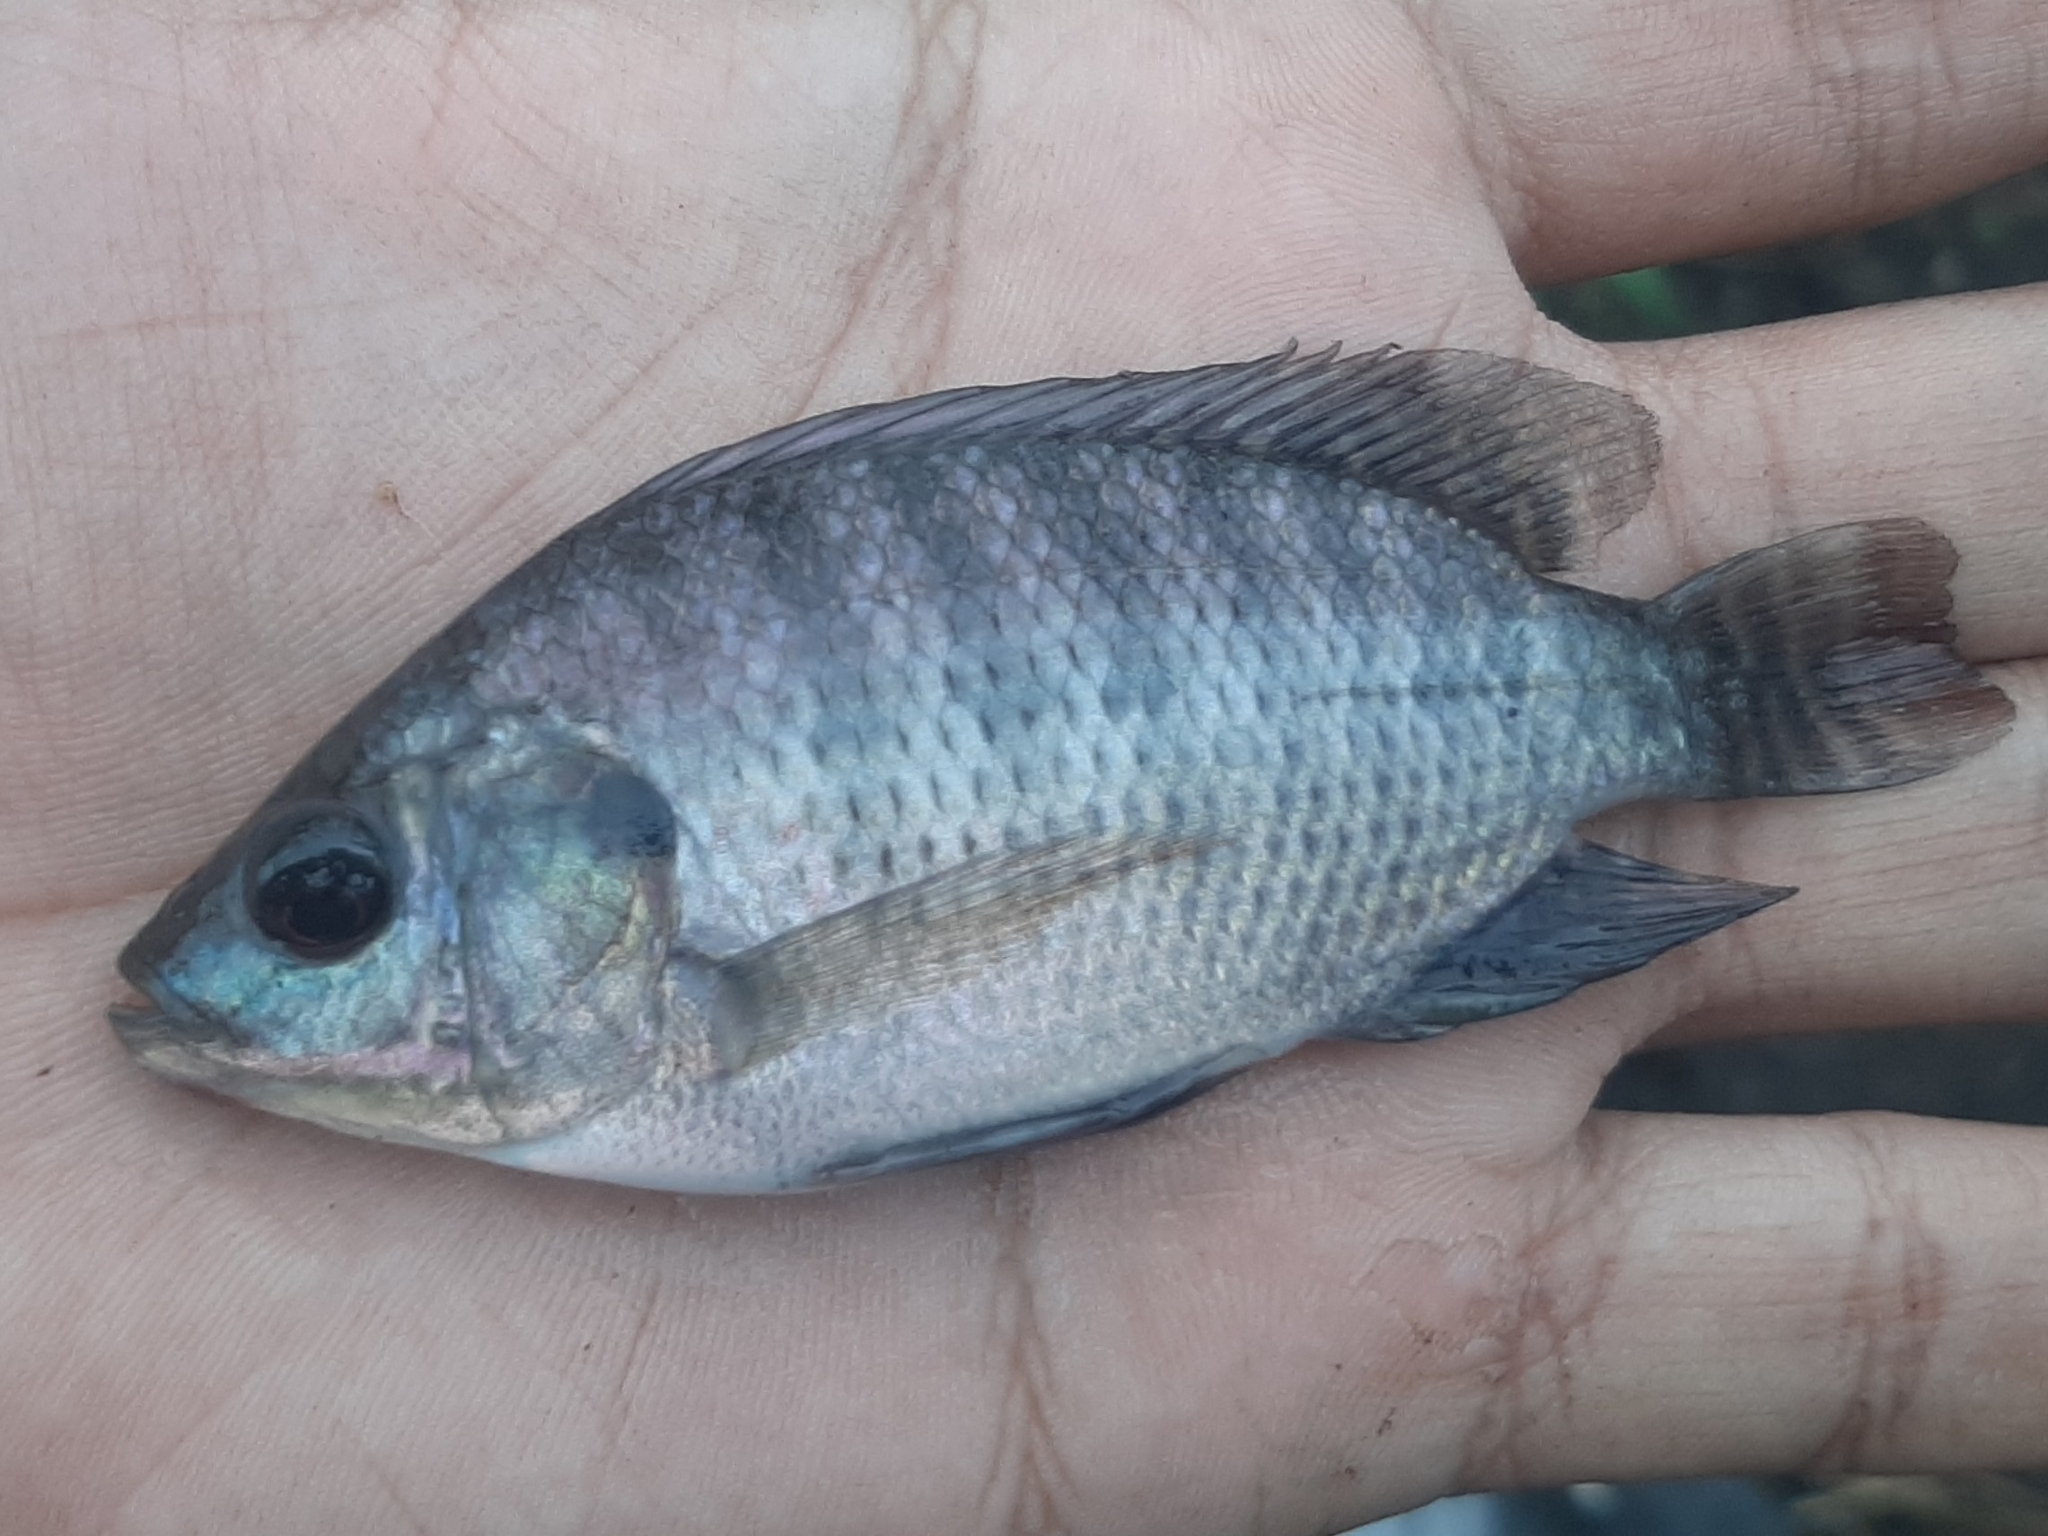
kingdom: Animalia
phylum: Chordata
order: Perciformes
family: Cichlidae
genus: Oreochromis
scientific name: Oreochromis niloticus
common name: Nile tilapia
